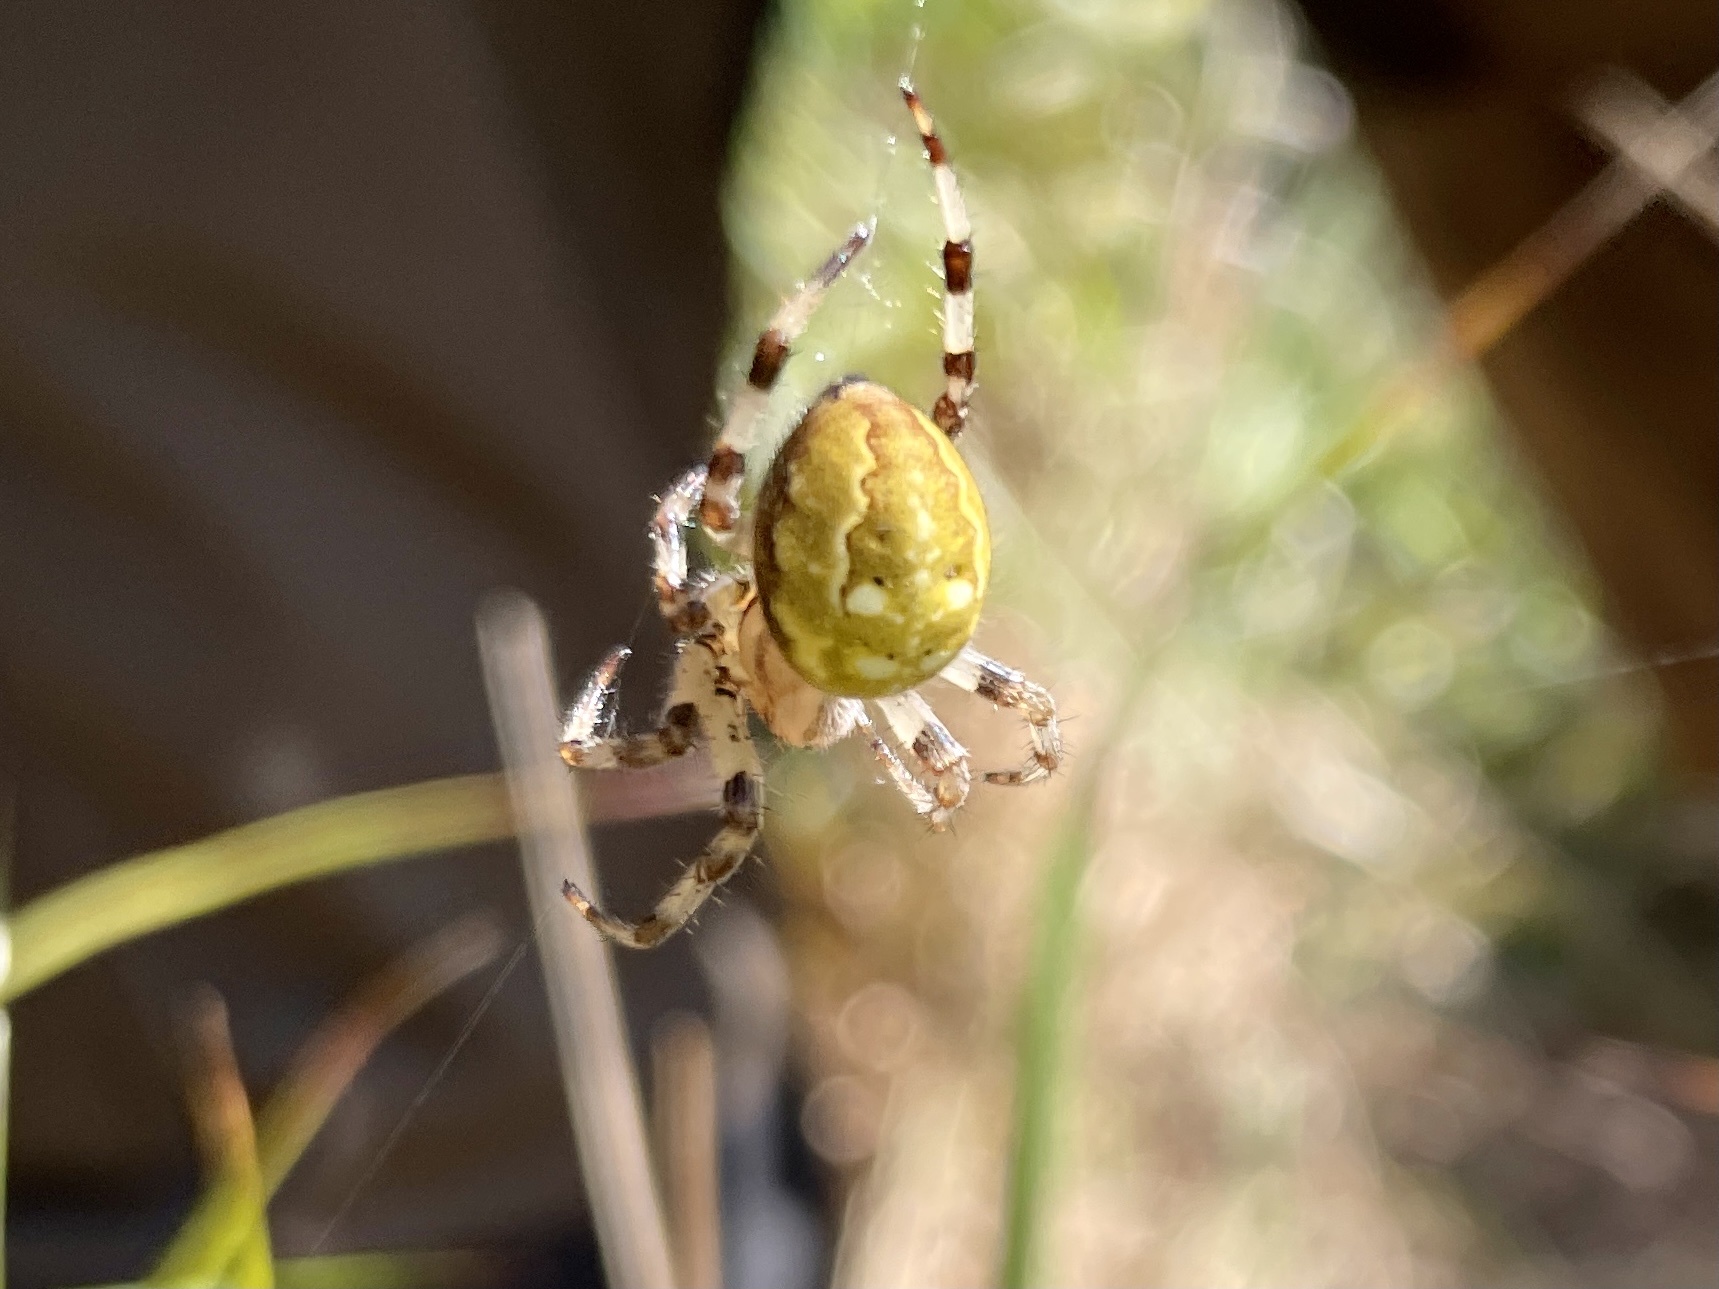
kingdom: Animalia
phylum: Arthropoda
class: Arachnida
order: Araneae
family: Araneidae
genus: Araneus
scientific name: Araneus quadratus
